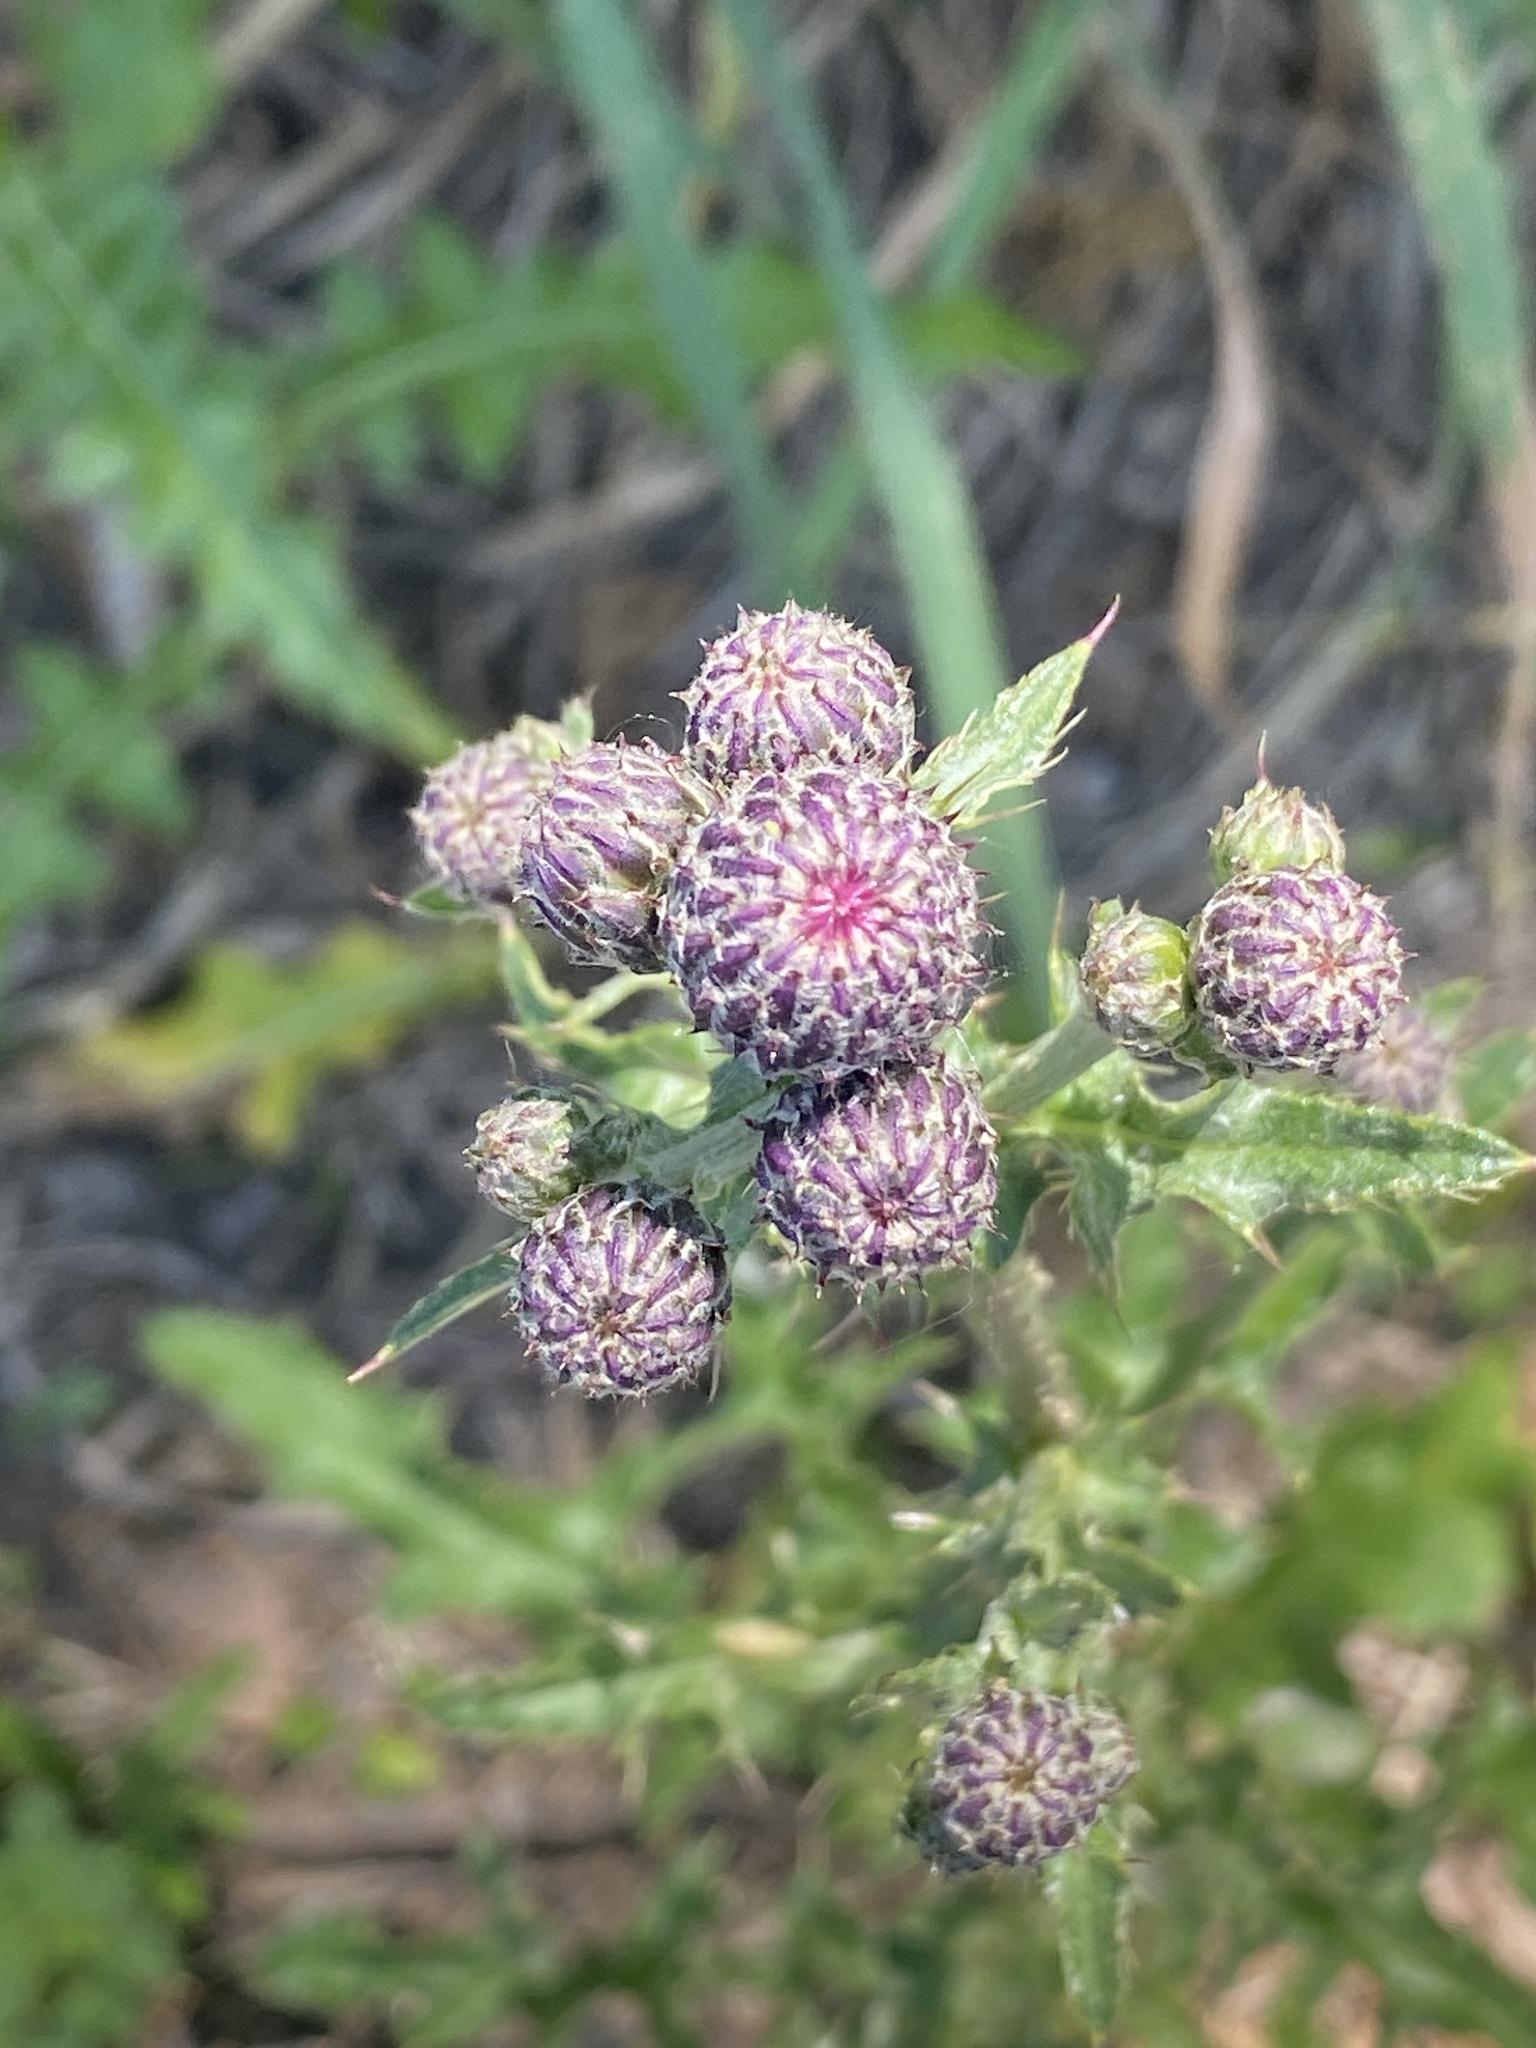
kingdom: Plantae
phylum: Tracheophyta
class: Magnoliopsida
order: Asterales
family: Asteraceae
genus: Cirsium
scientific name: Cirsium arvense
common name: Creeping thistle
